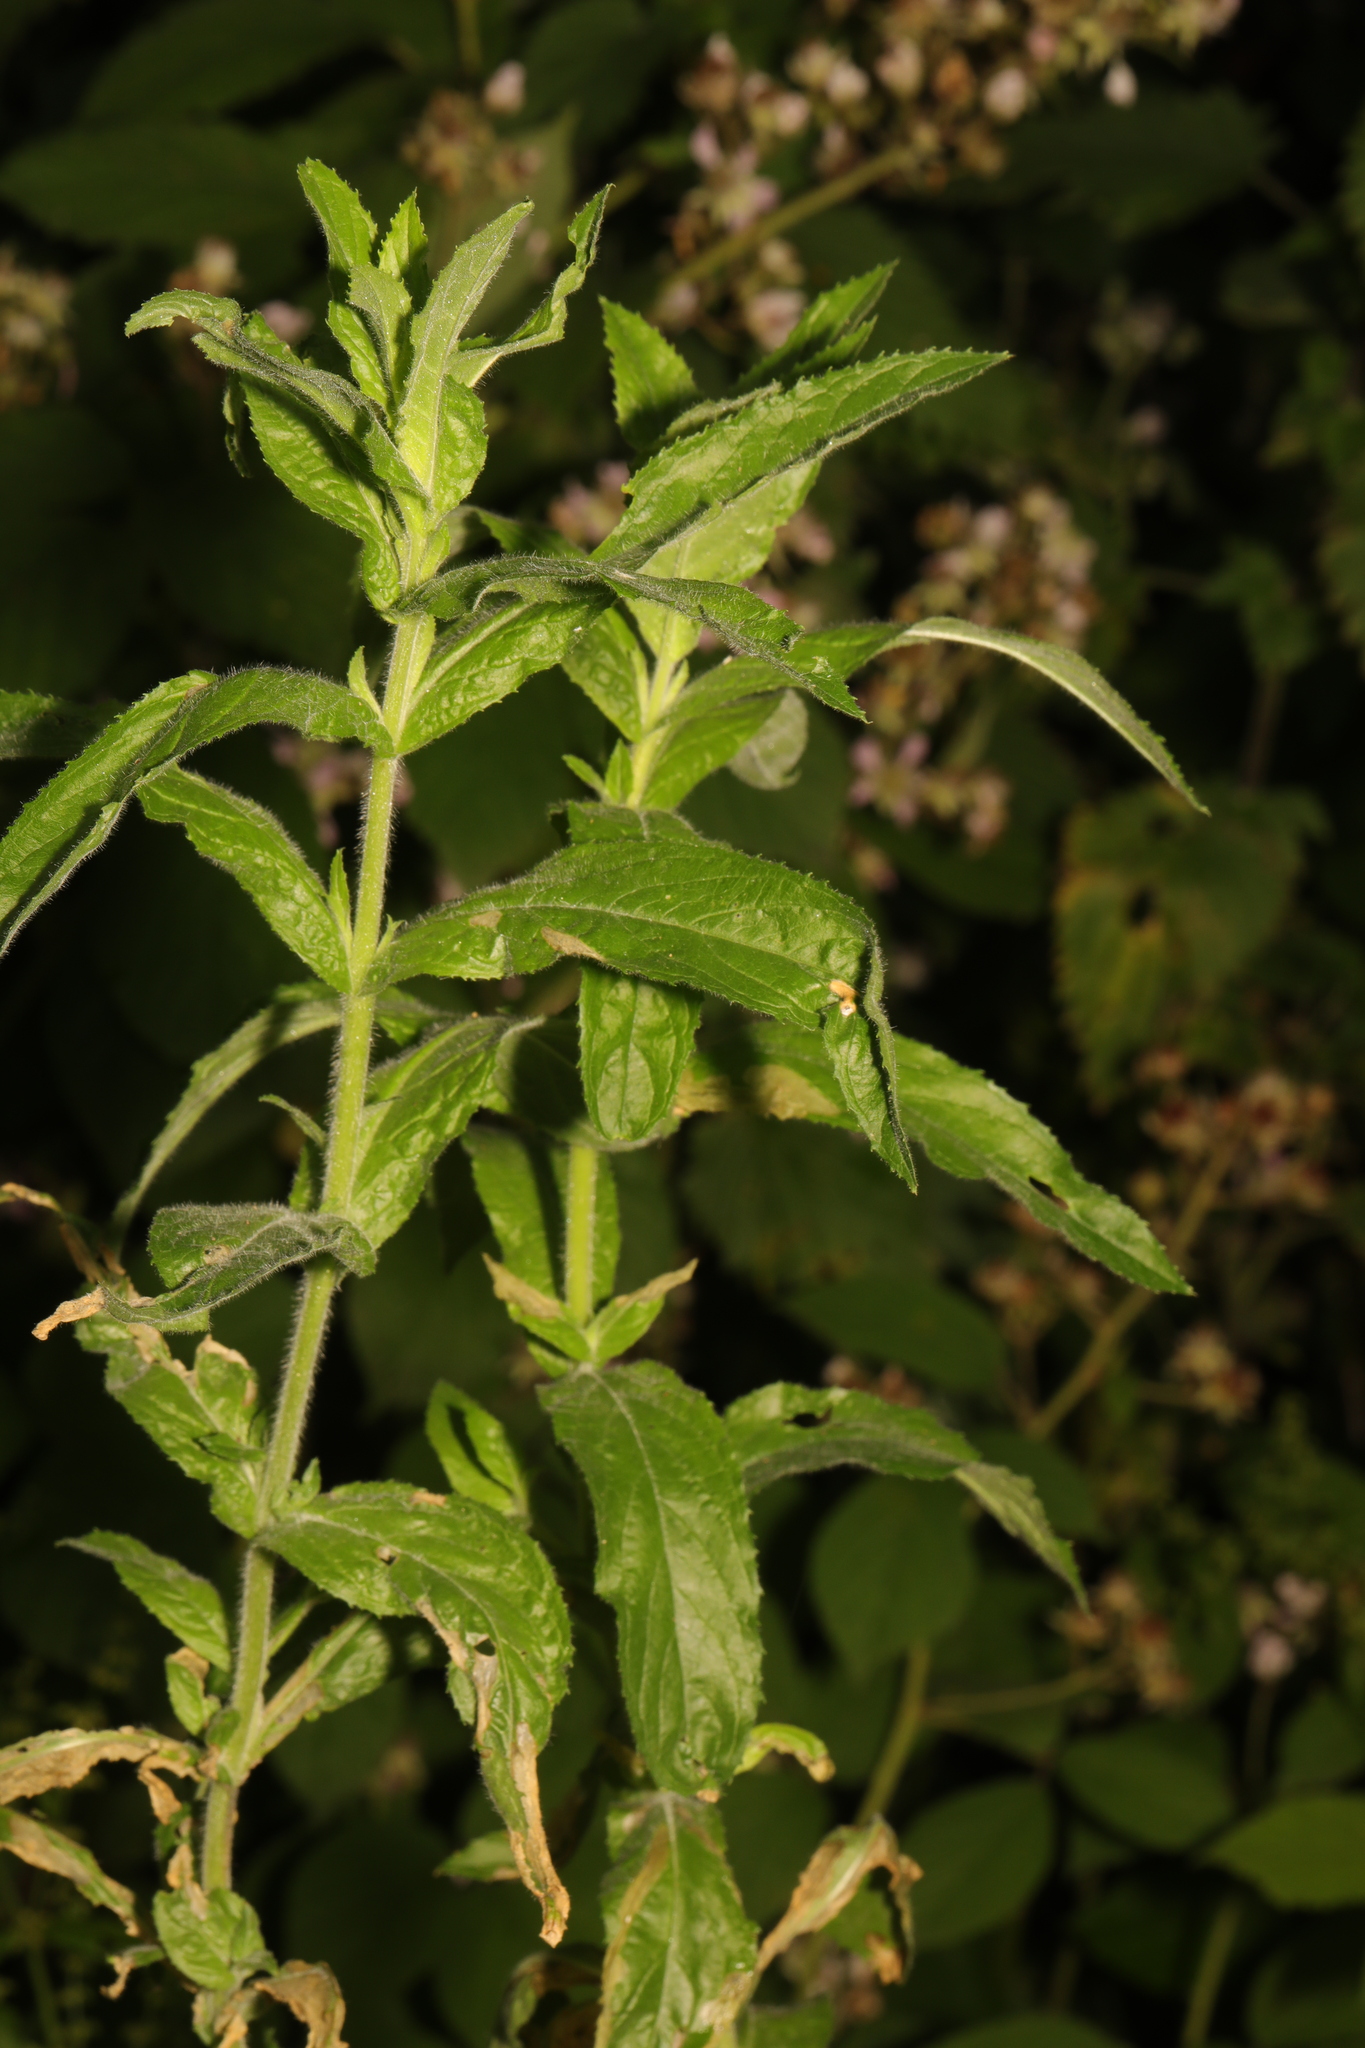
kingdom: Plantae
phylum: Tracheophyta
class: Magnoliopsida
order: Myrtales
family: Onagraceae
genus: Epilobium
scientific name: Epilobium hirsutum
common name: Great willowherb
